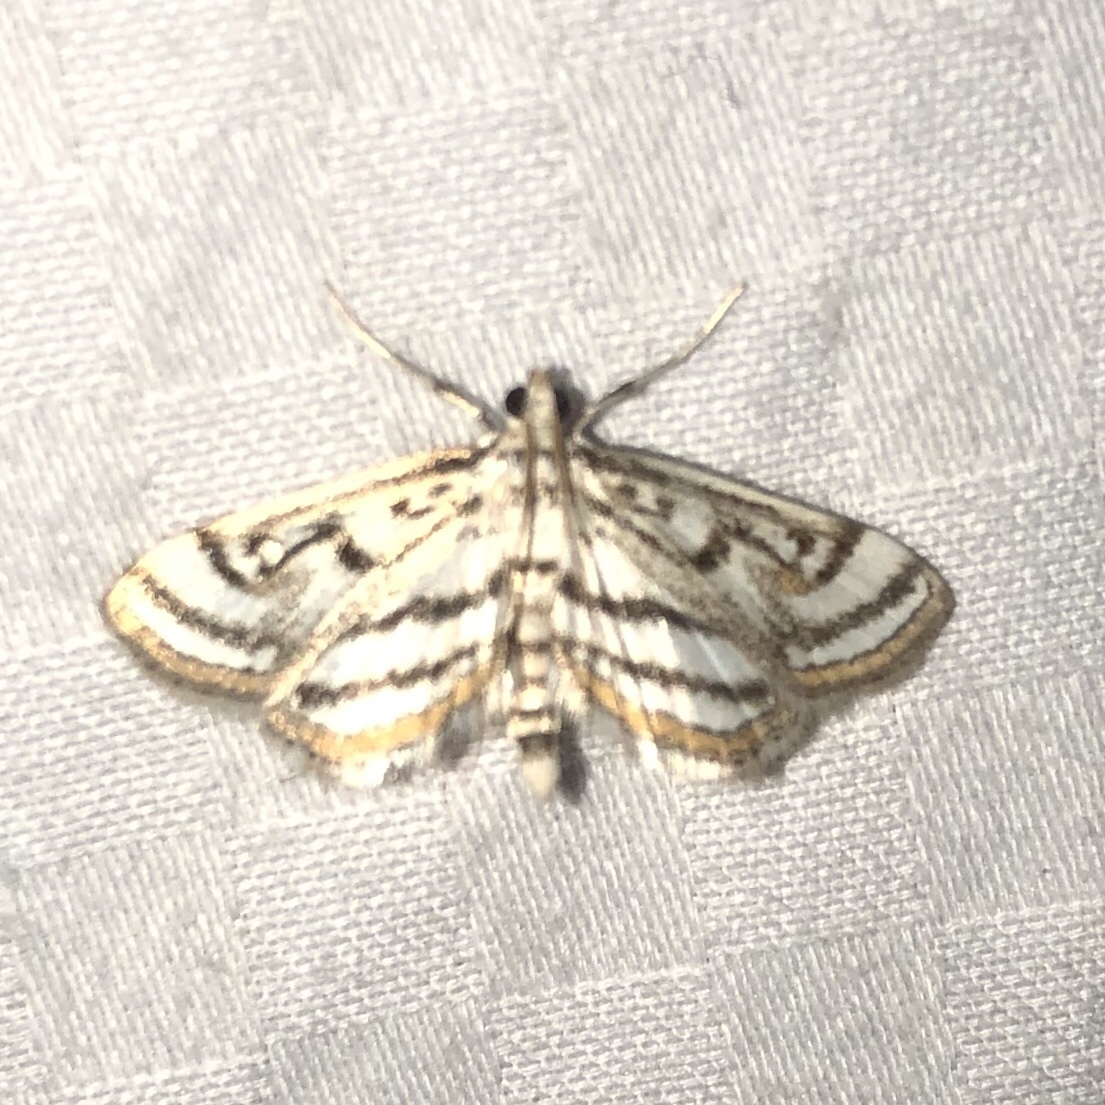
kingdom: Animalia
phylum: Arthropoda
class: Insecta
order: Lepidoptera
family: Crambidae
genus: Parapoynx
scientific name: Parapoynx badiusalis
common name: Chestnut-marked pondweed moth
